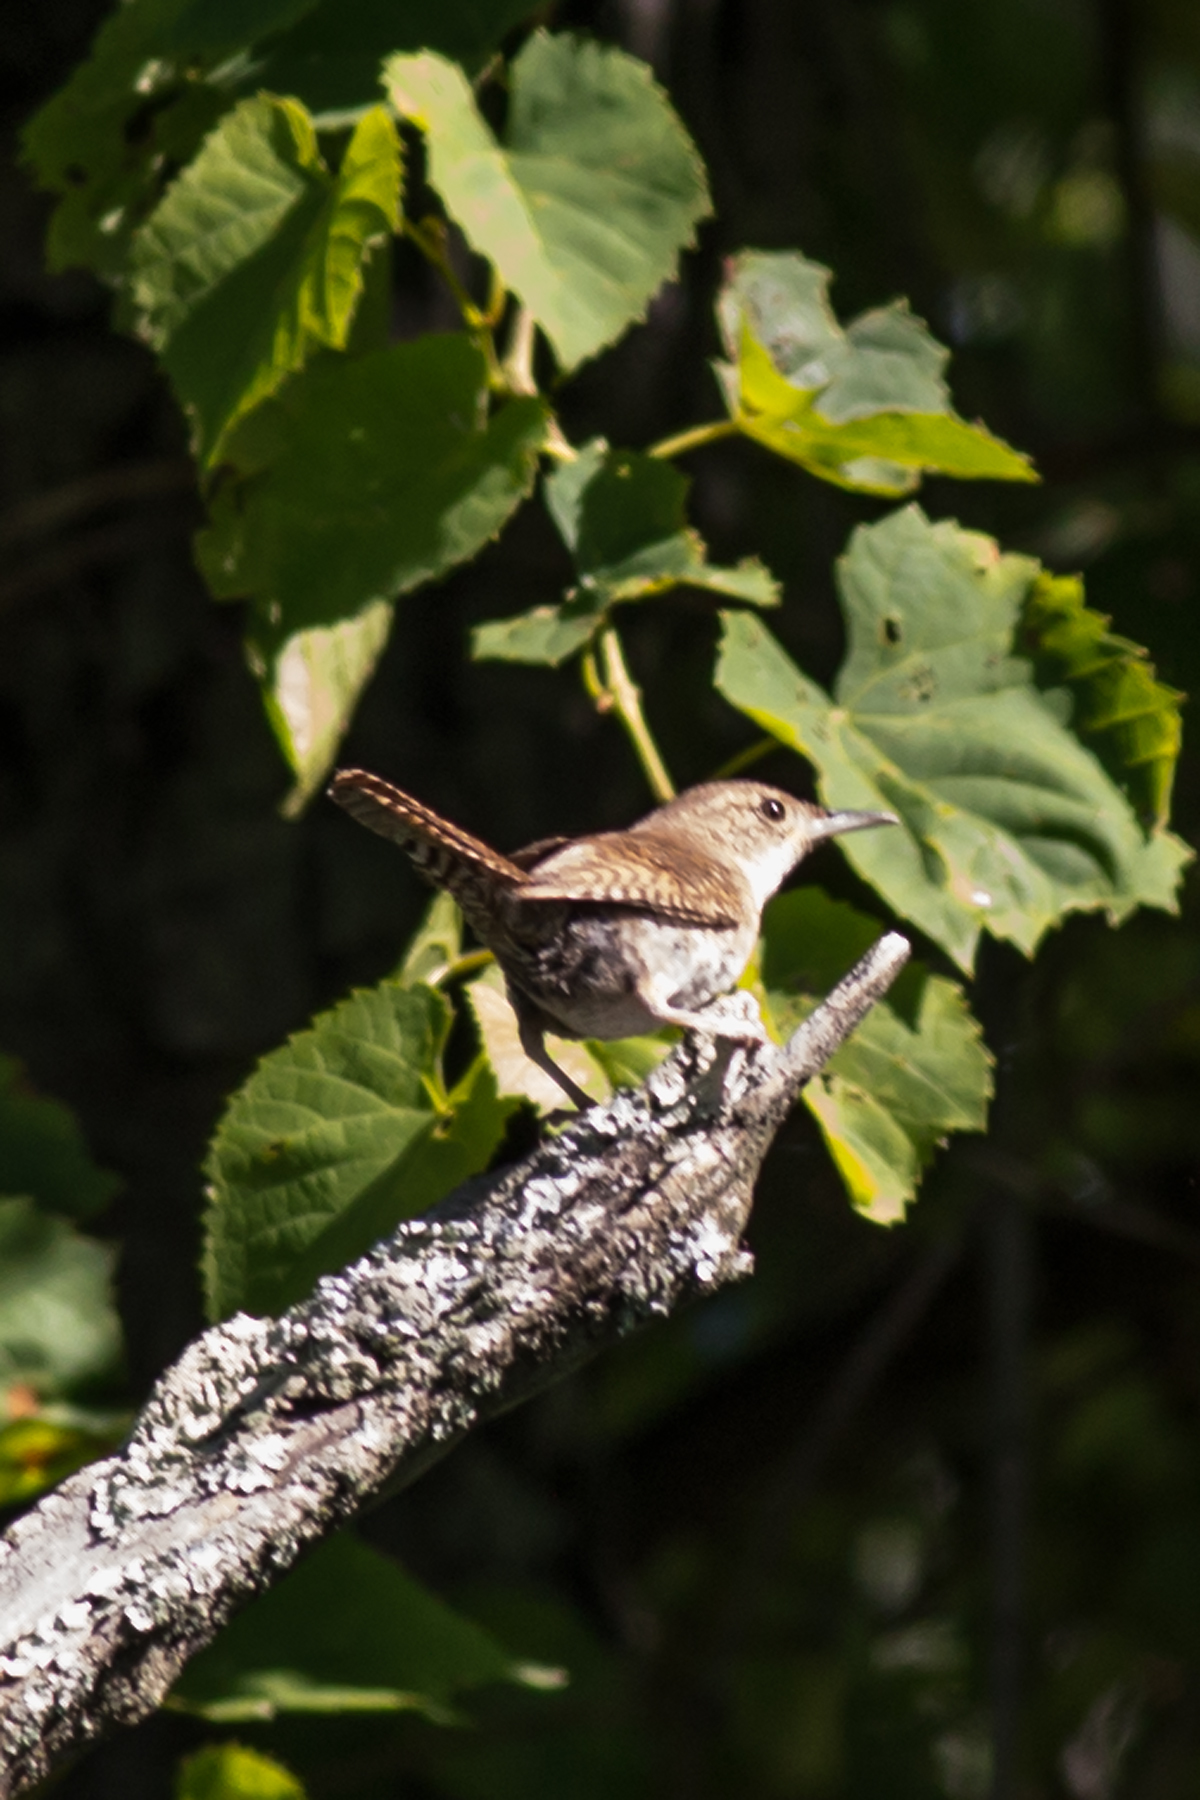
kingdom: Animalia
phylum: Chordata
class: Aves
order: Passeriformes
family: Troglodytidae
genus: Troglodytes
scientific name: Troglodytes aedon
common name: House wren
